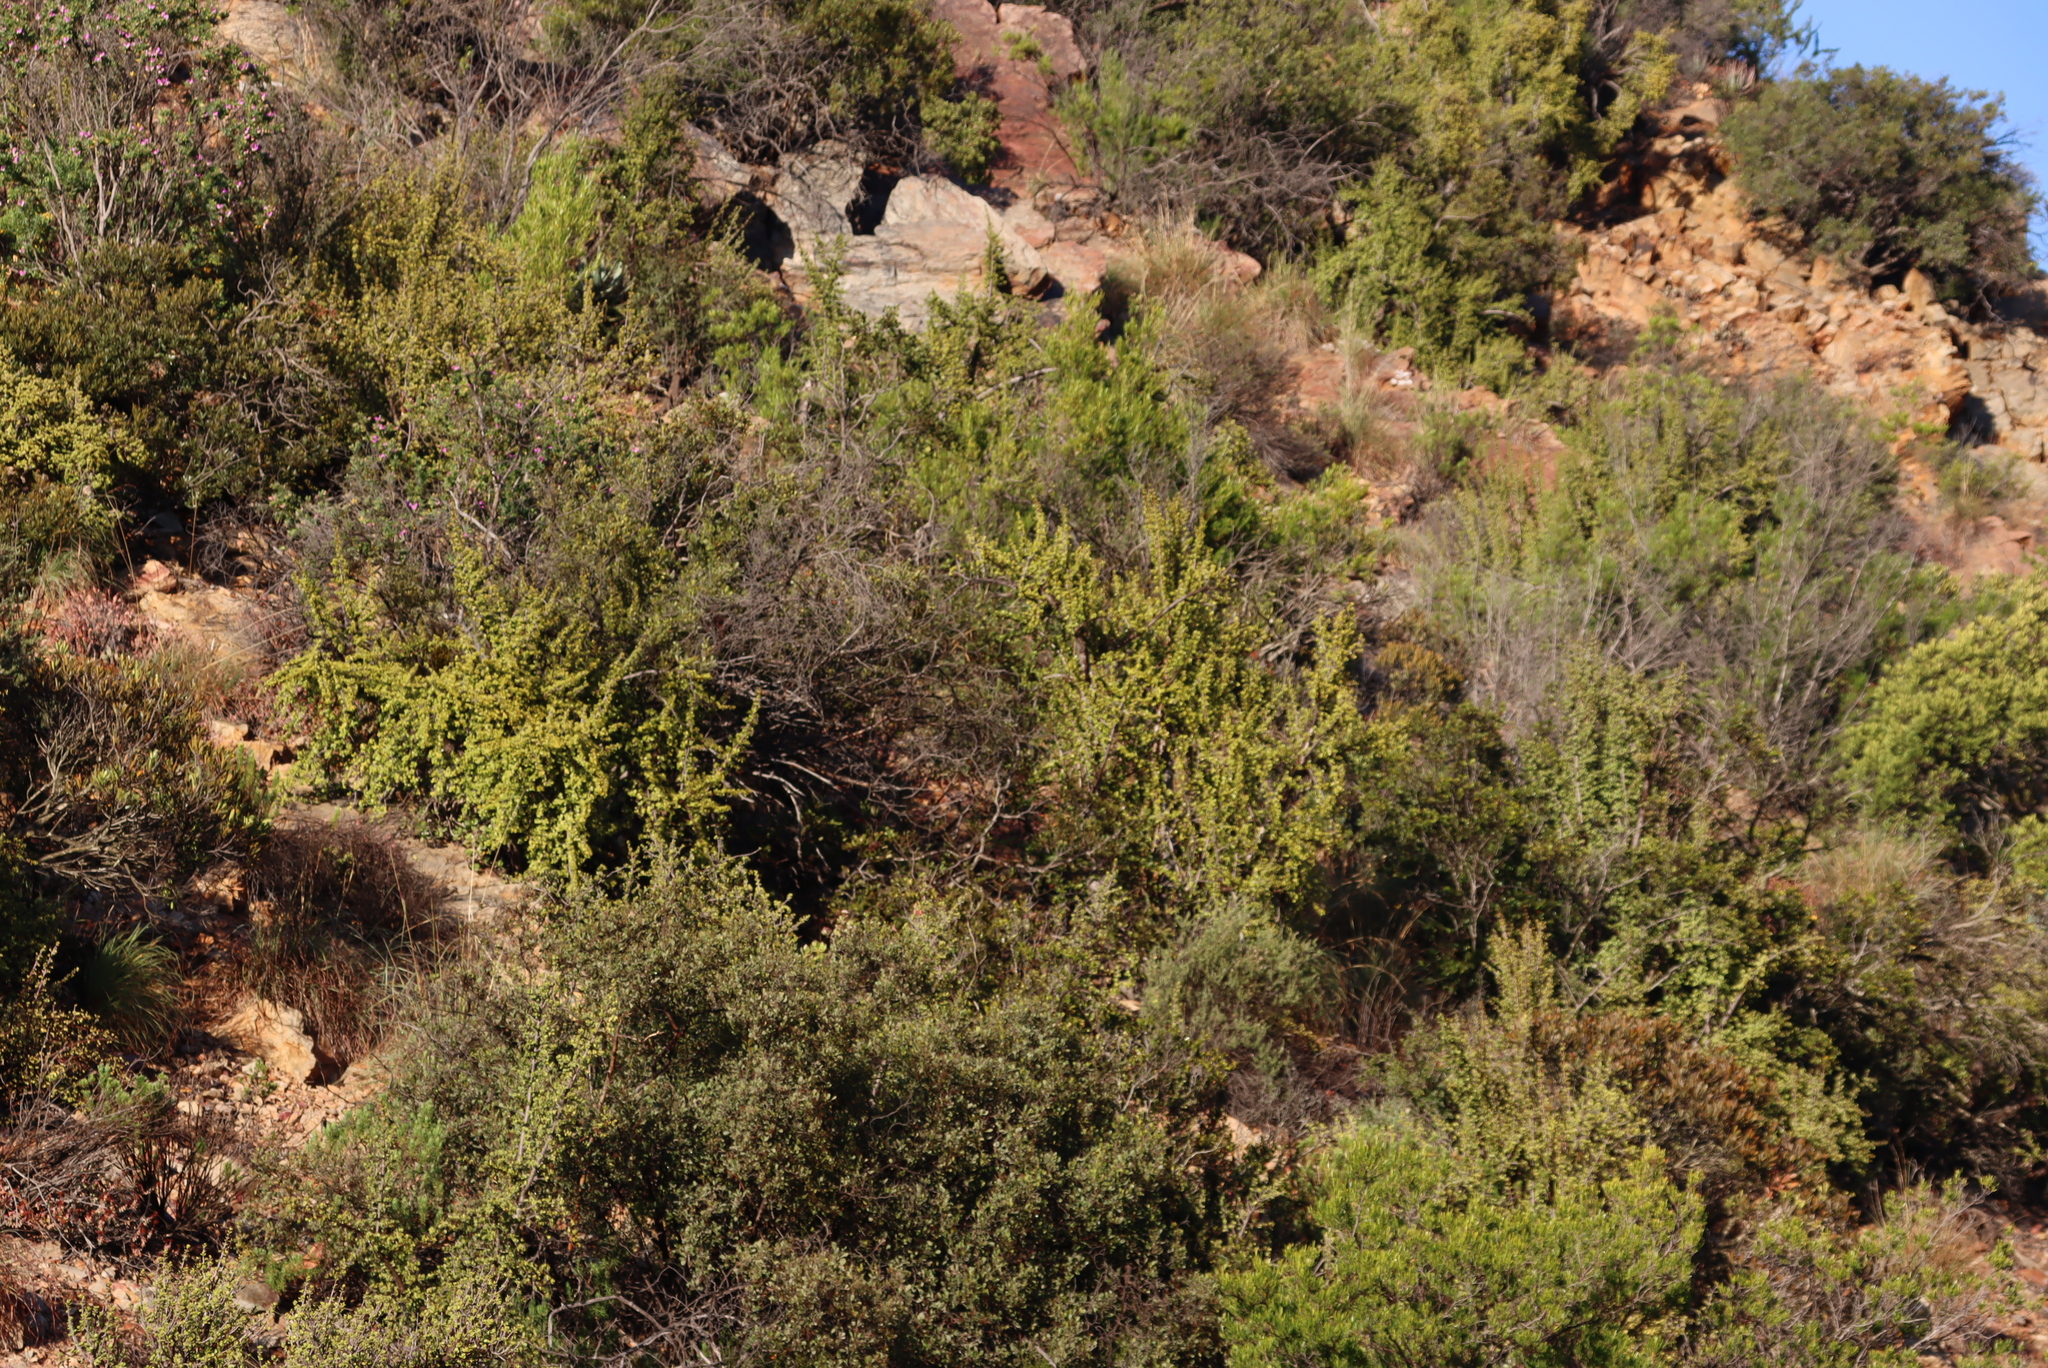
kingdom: Plantae
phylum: Tracheophyta
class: Magnoliopsida
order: Caryophyllales
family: Didiereaceae
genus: Portulacaria
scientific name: Portulacaria afra
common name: Elephant-bush
